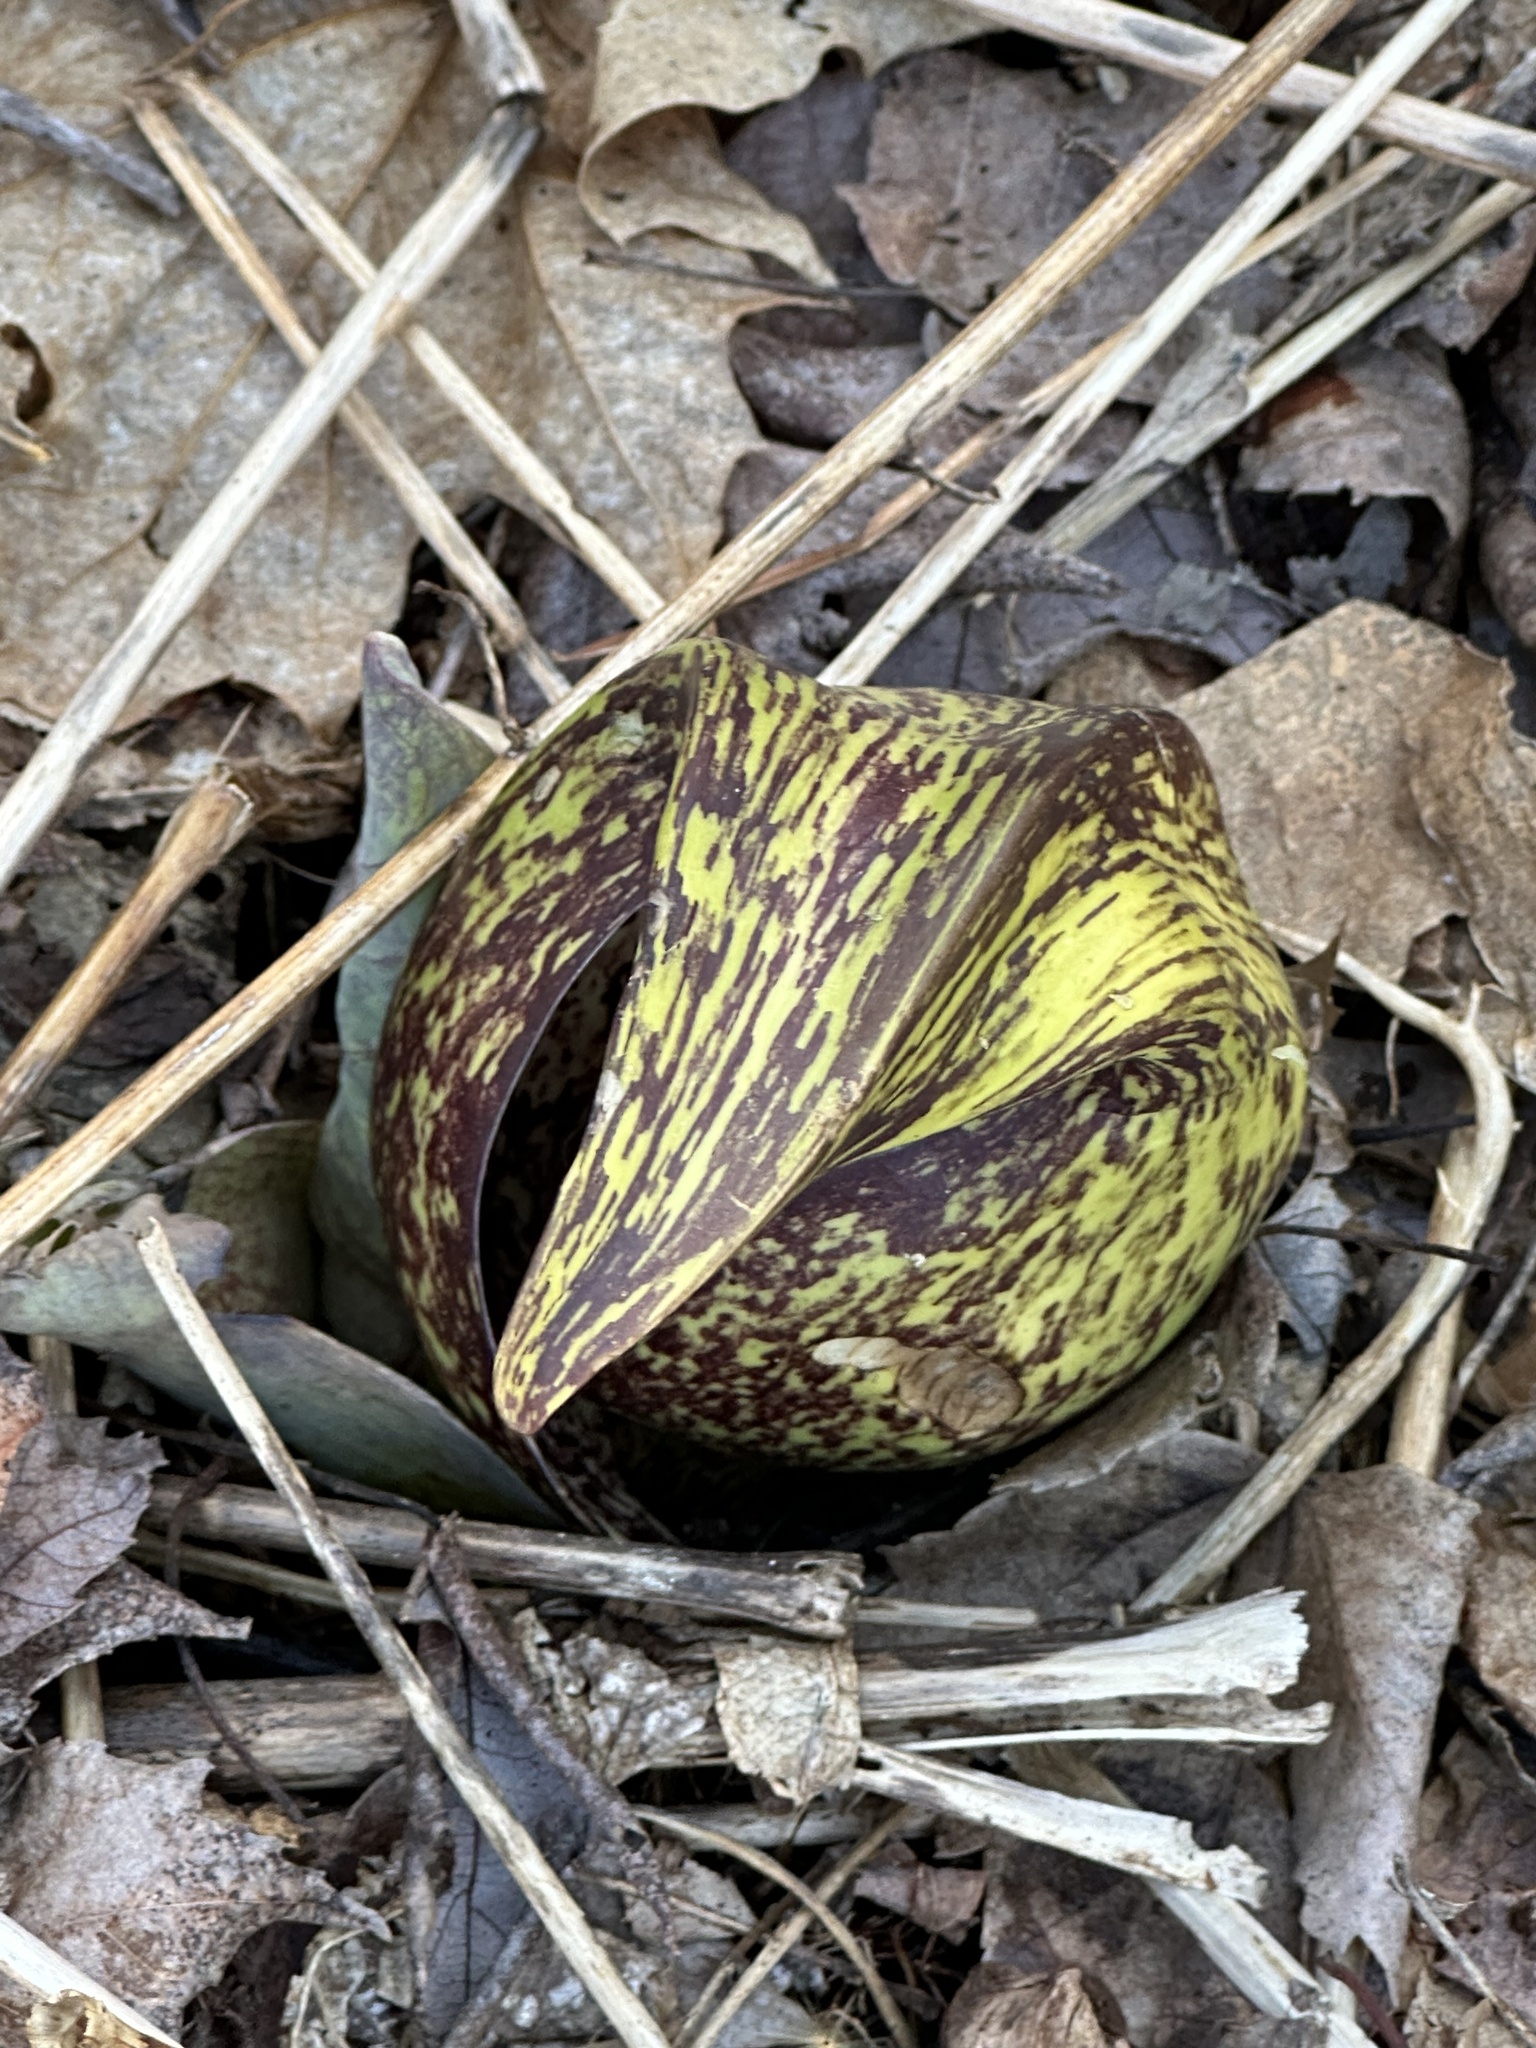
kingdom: Plantae
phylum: Tracheophyta
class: Liliopsida
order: Alismatales
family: Araceae
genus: Symplocarpus
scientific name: Symplocarpus foetidus
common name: Eastern skunk cabbage
